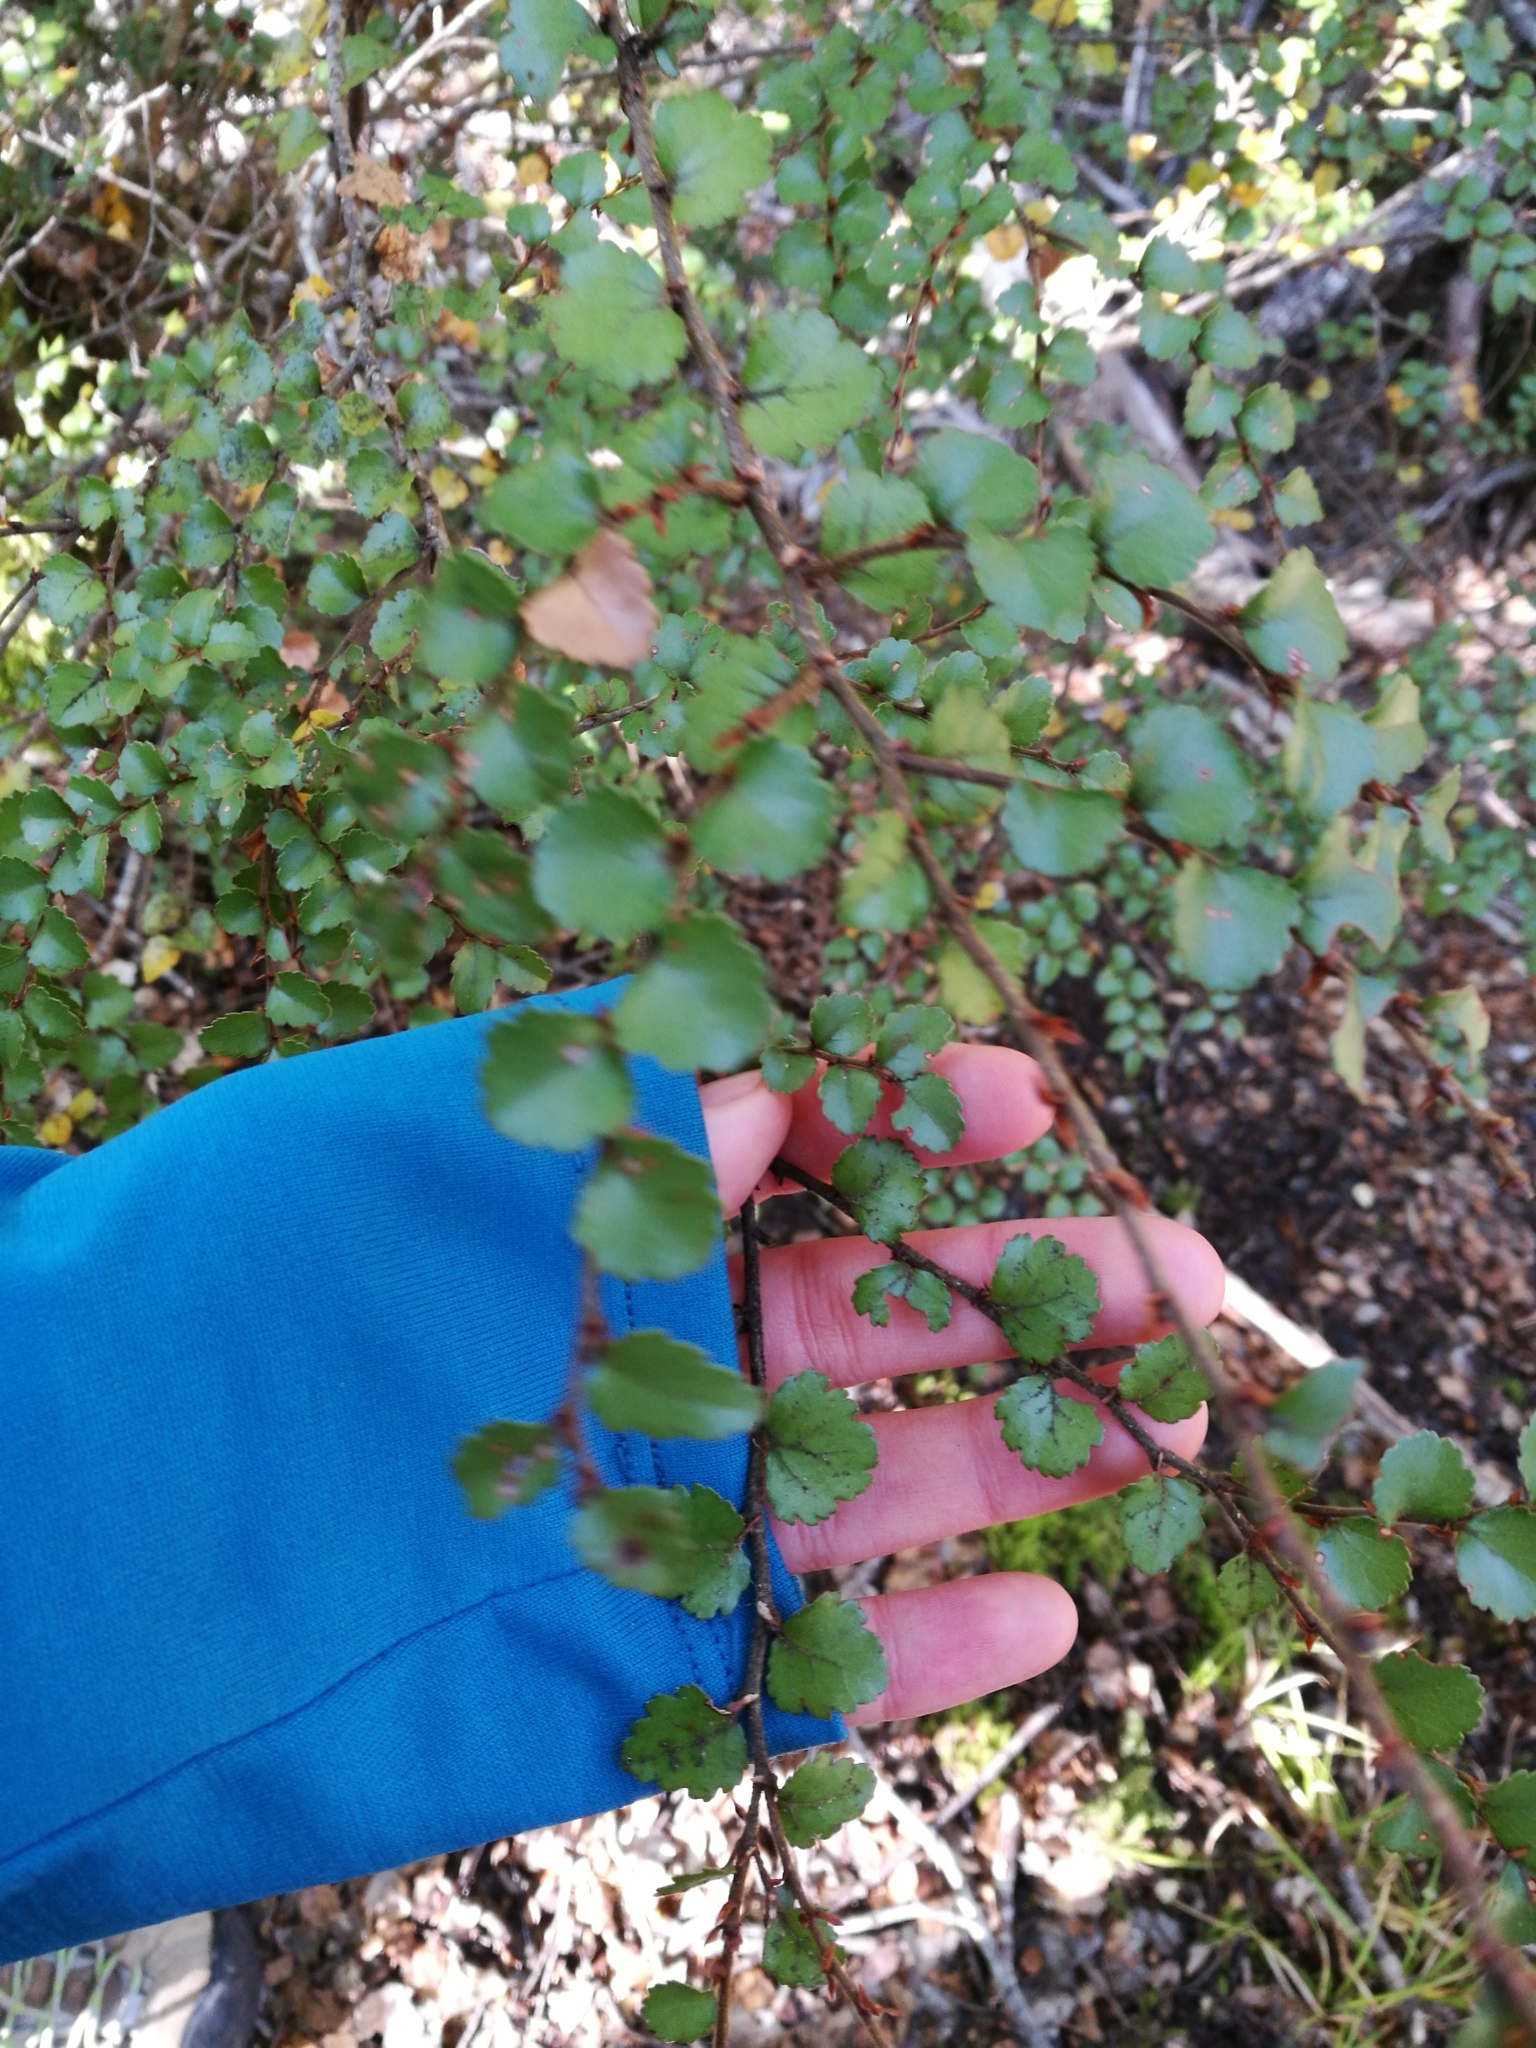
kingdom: Plantae
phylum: Tracheophyta
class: Magnoliopsida
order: Fagales
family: Nothofagaceae
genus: Nothofagus
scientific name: Nothofagus menziesii
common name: Silver beech
